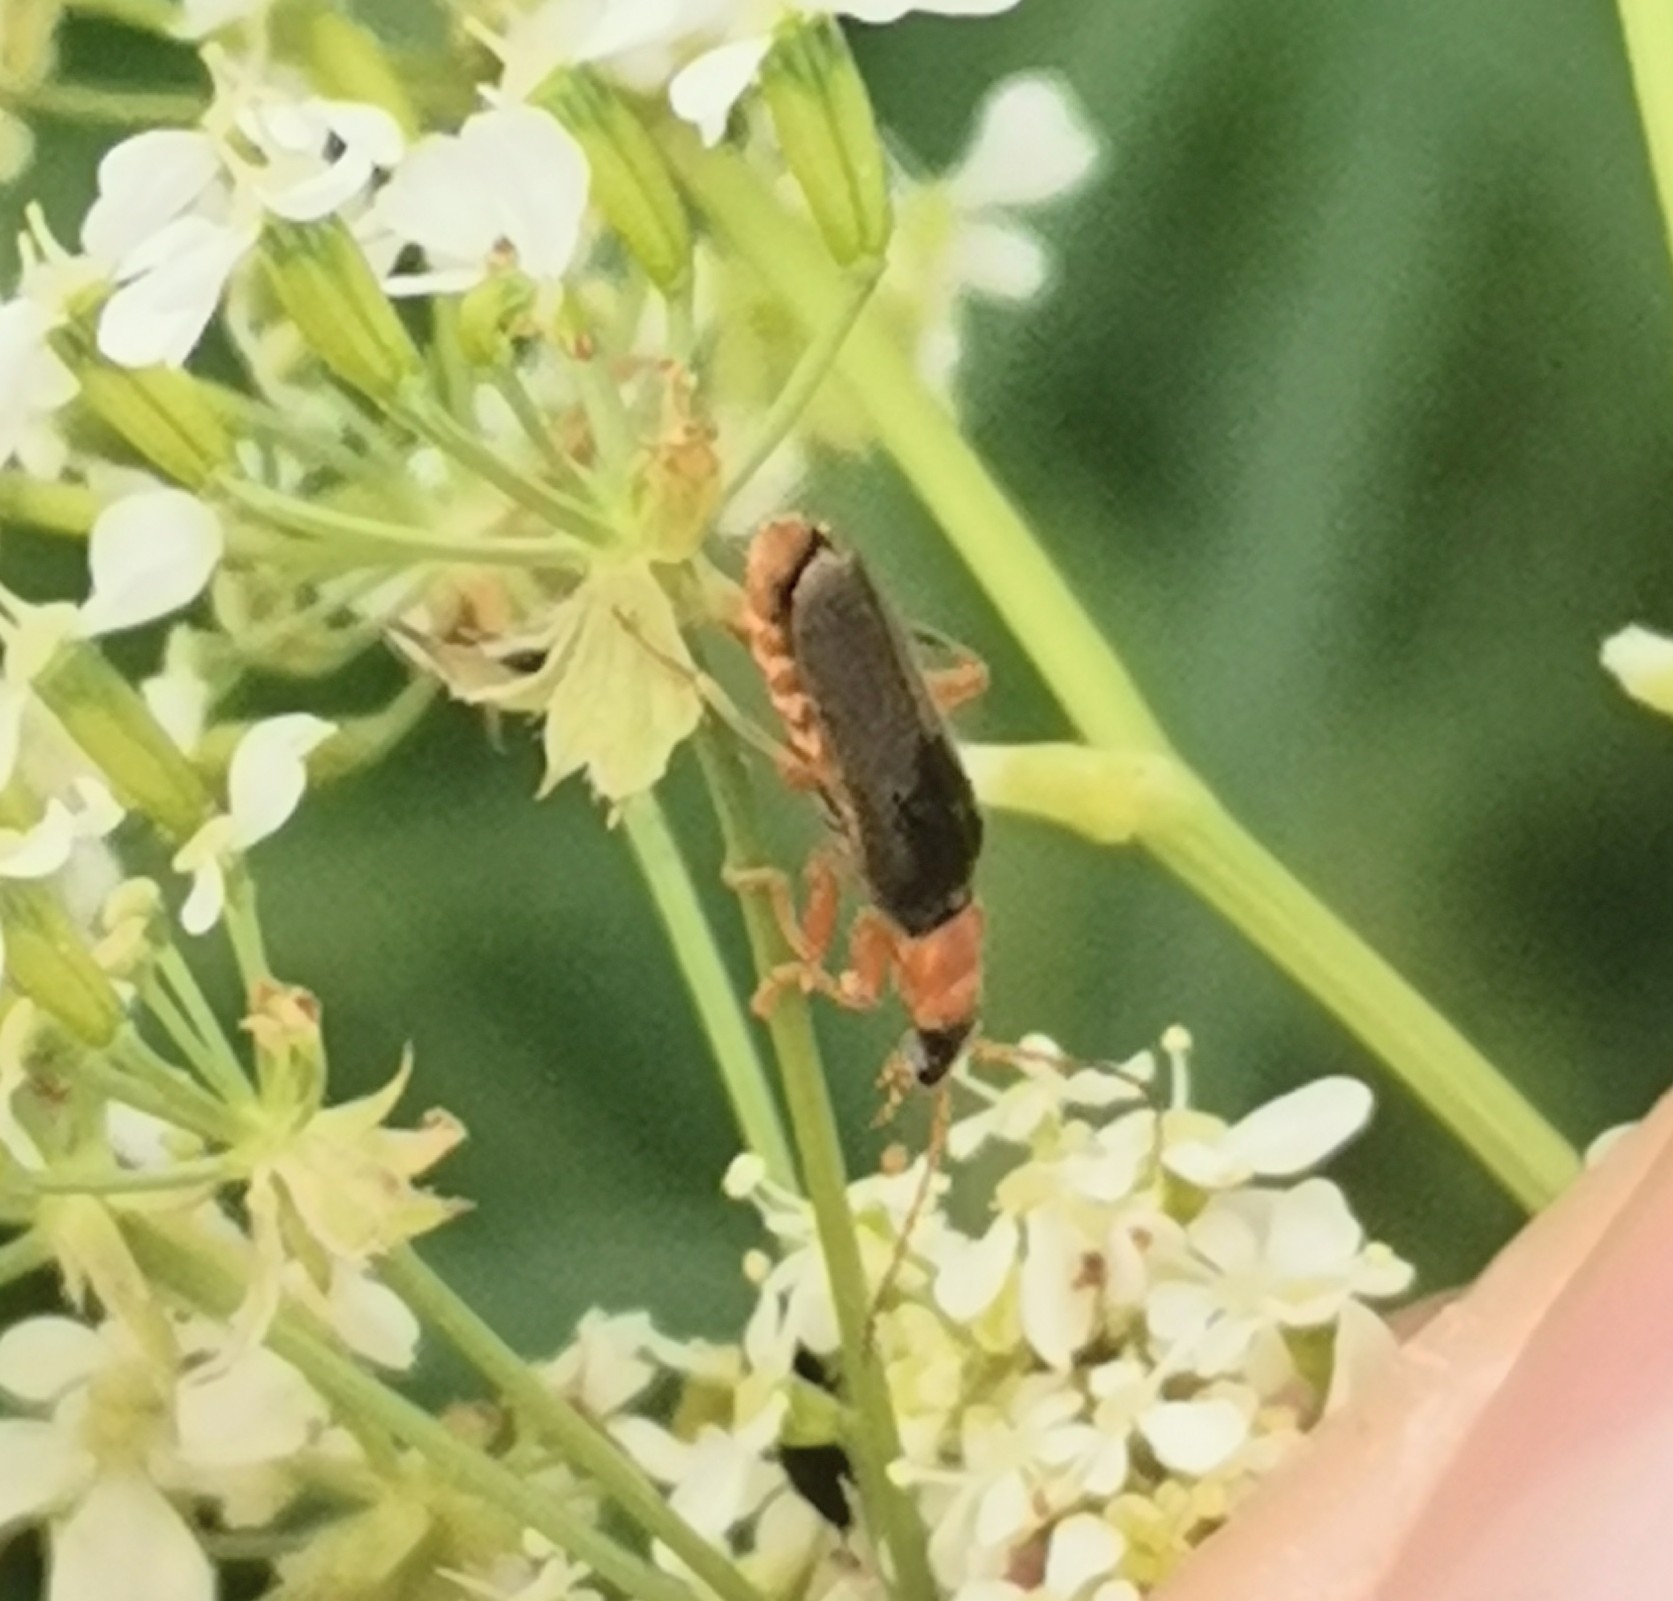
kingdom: Animalia
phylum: Arthropoda
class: Insecta
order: Coleoptera
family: Cantharidae
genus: Cantharis
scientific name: Cantharis lateralis
